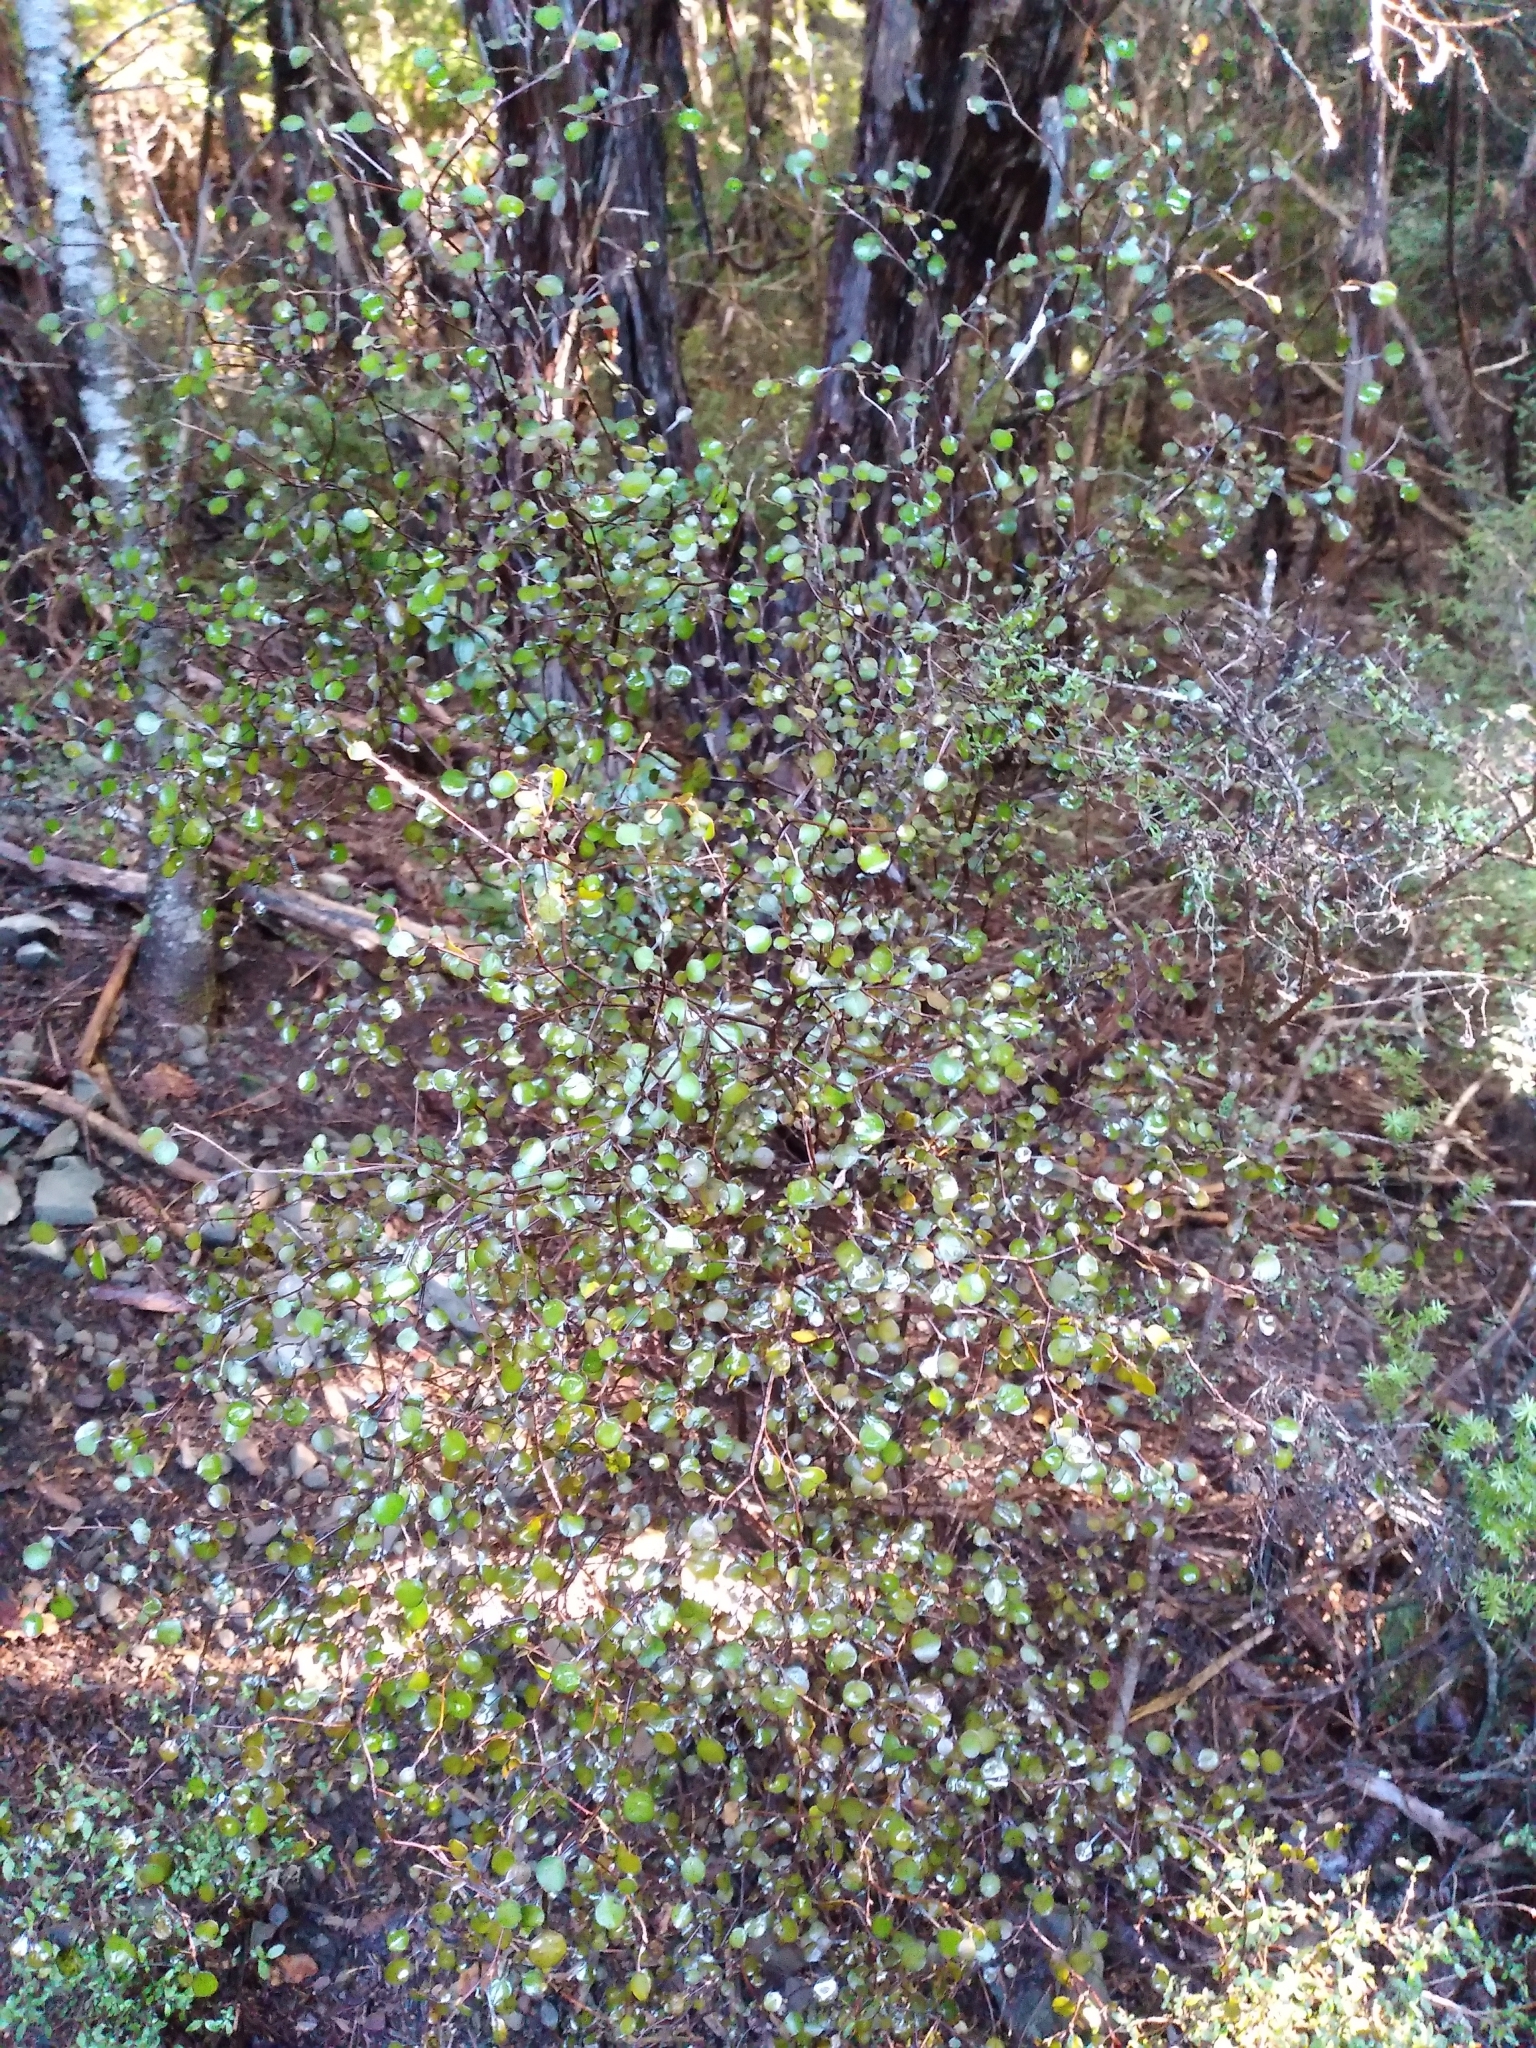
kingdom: Plantae
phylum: Tracheophyta
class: Magnoliopsida
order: Asterales
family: Argophyllaceae
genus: Corokia
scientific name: Corokia cotoneaster
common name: Wire nettingbush
